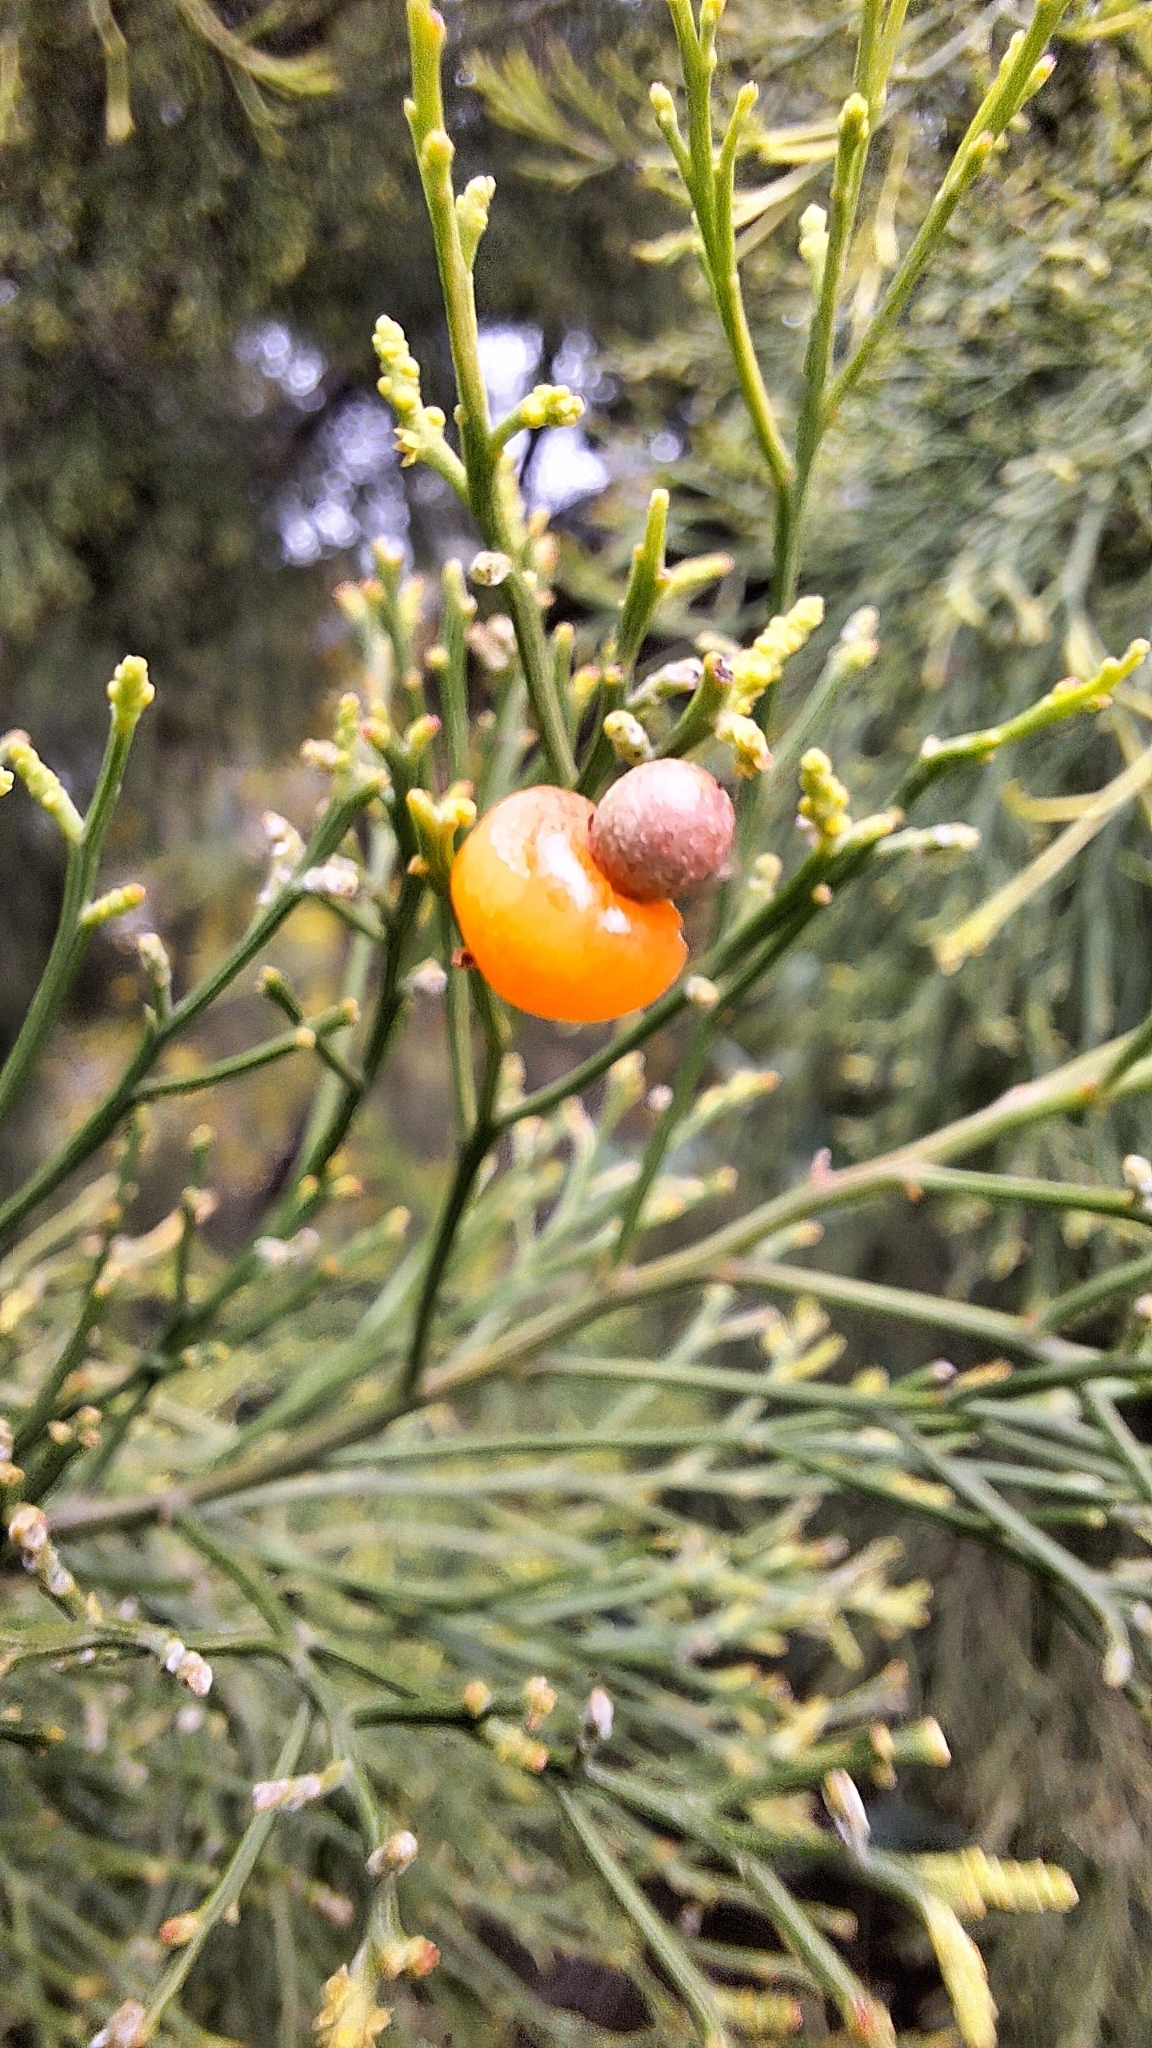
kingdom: Plantae
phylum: Tracheophyta
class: Magnoliopsida
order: Santalales
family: Santalaceae
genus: Exocarpos
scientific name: Exocarpos cupressiformis
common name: Cherry ballart
